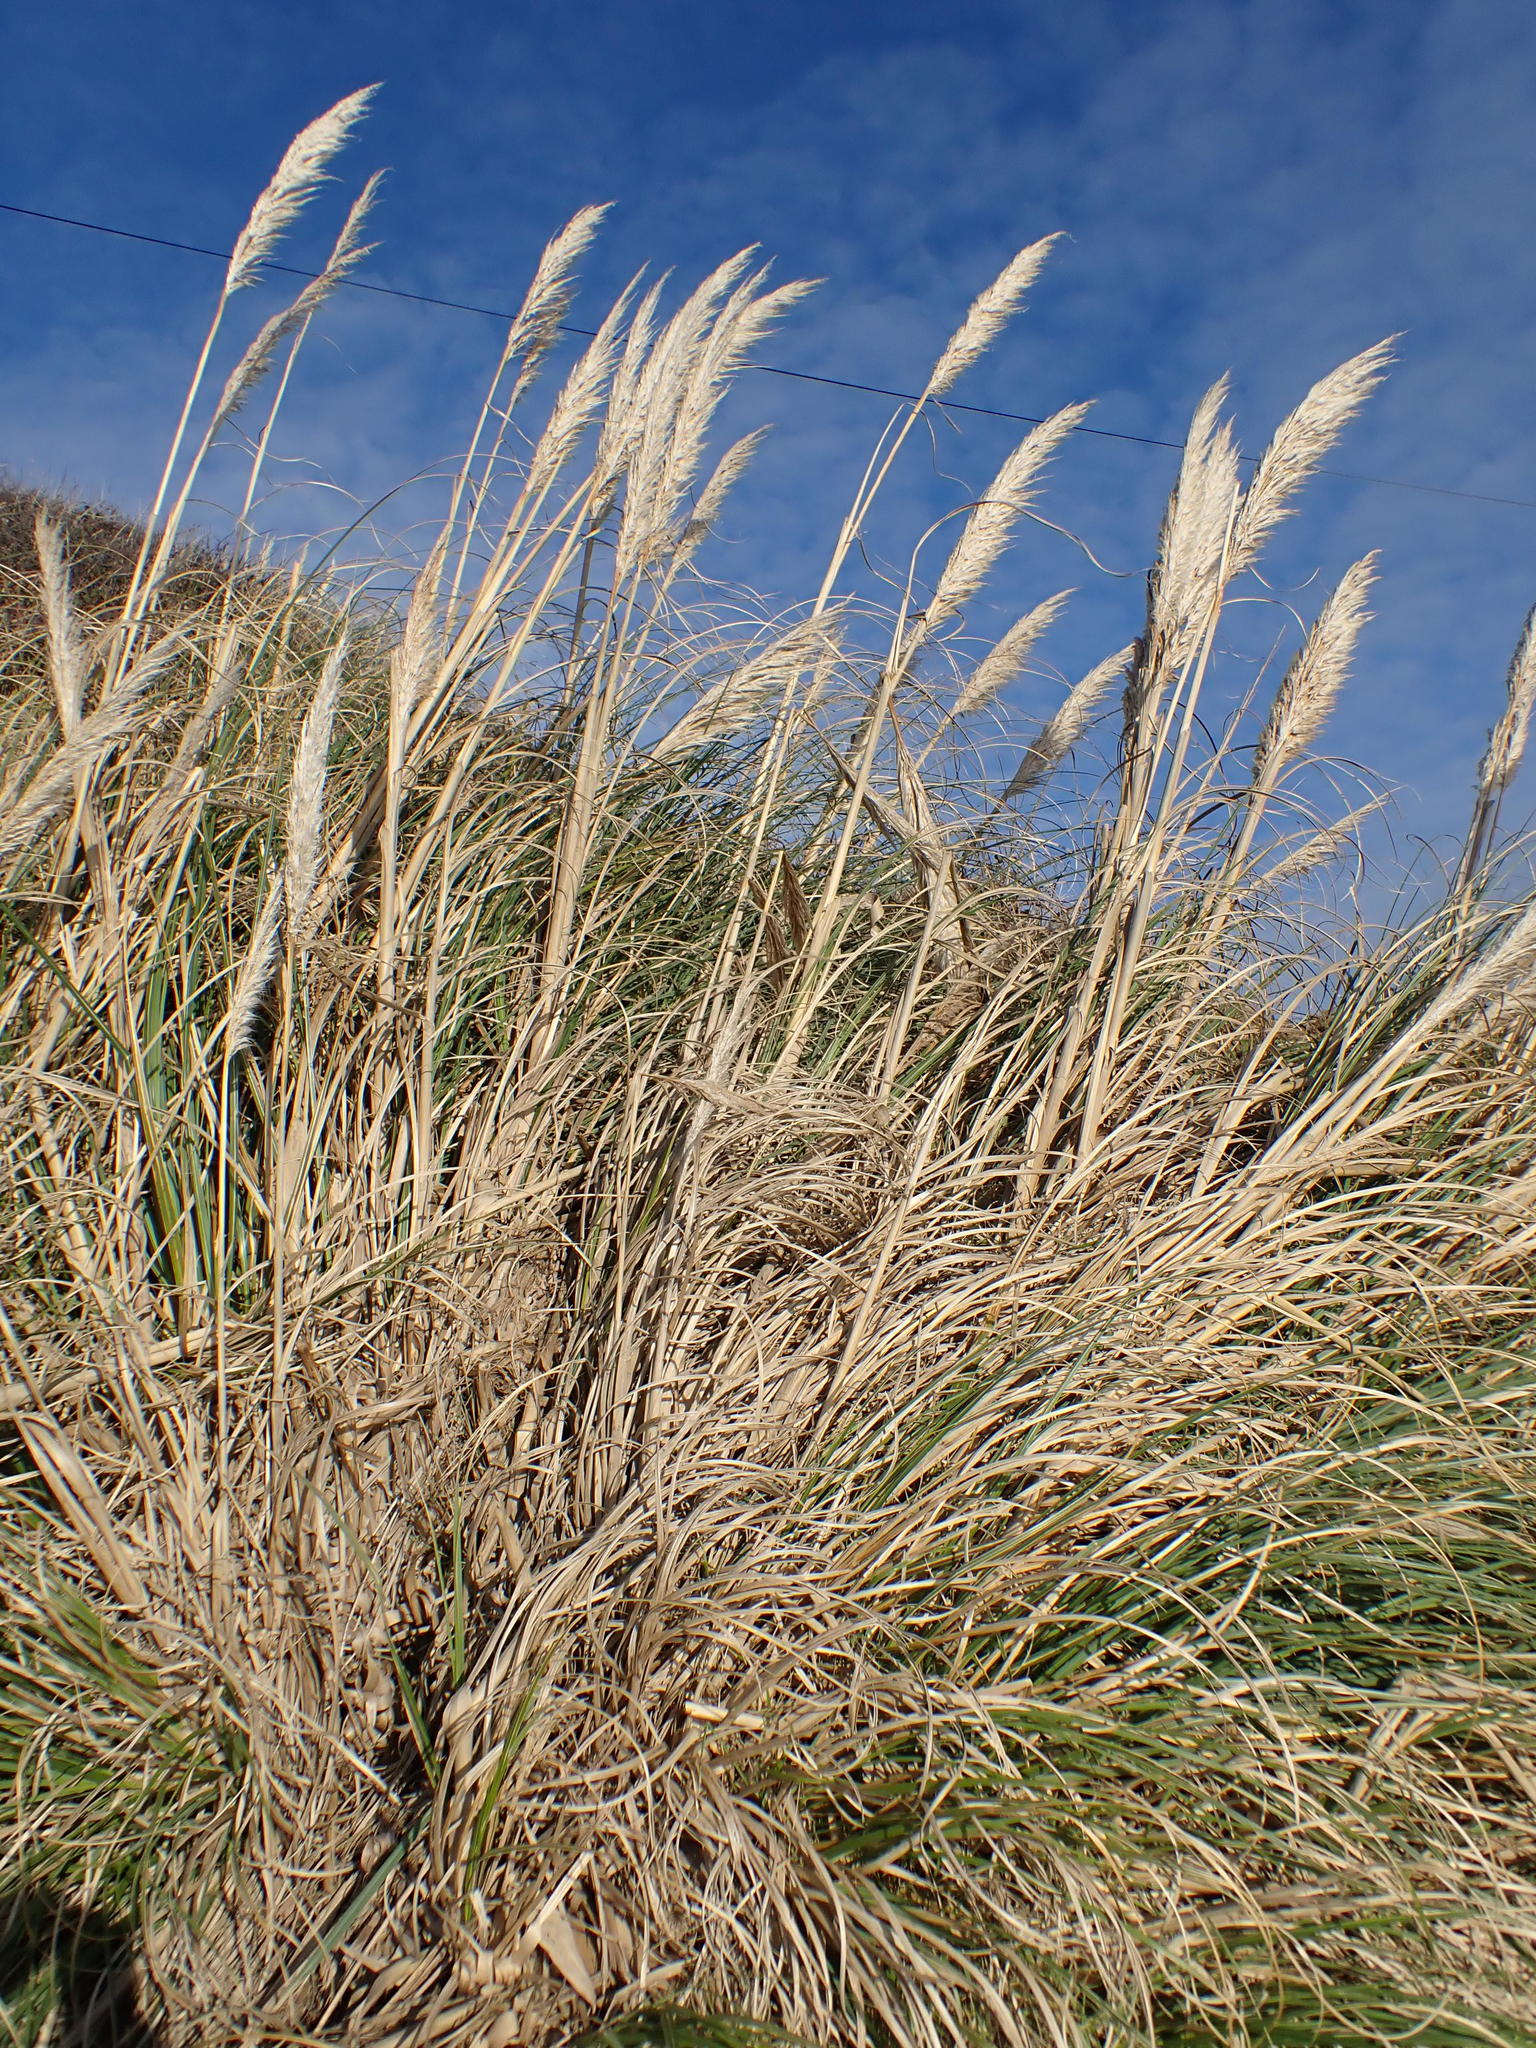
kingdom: Plantae
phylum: Tracheophyta
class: Liliopsida
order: Poales
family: Poaceae
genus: Cortaderia
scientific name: Cortaderia selloana
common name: Uruguayan pampas grass
